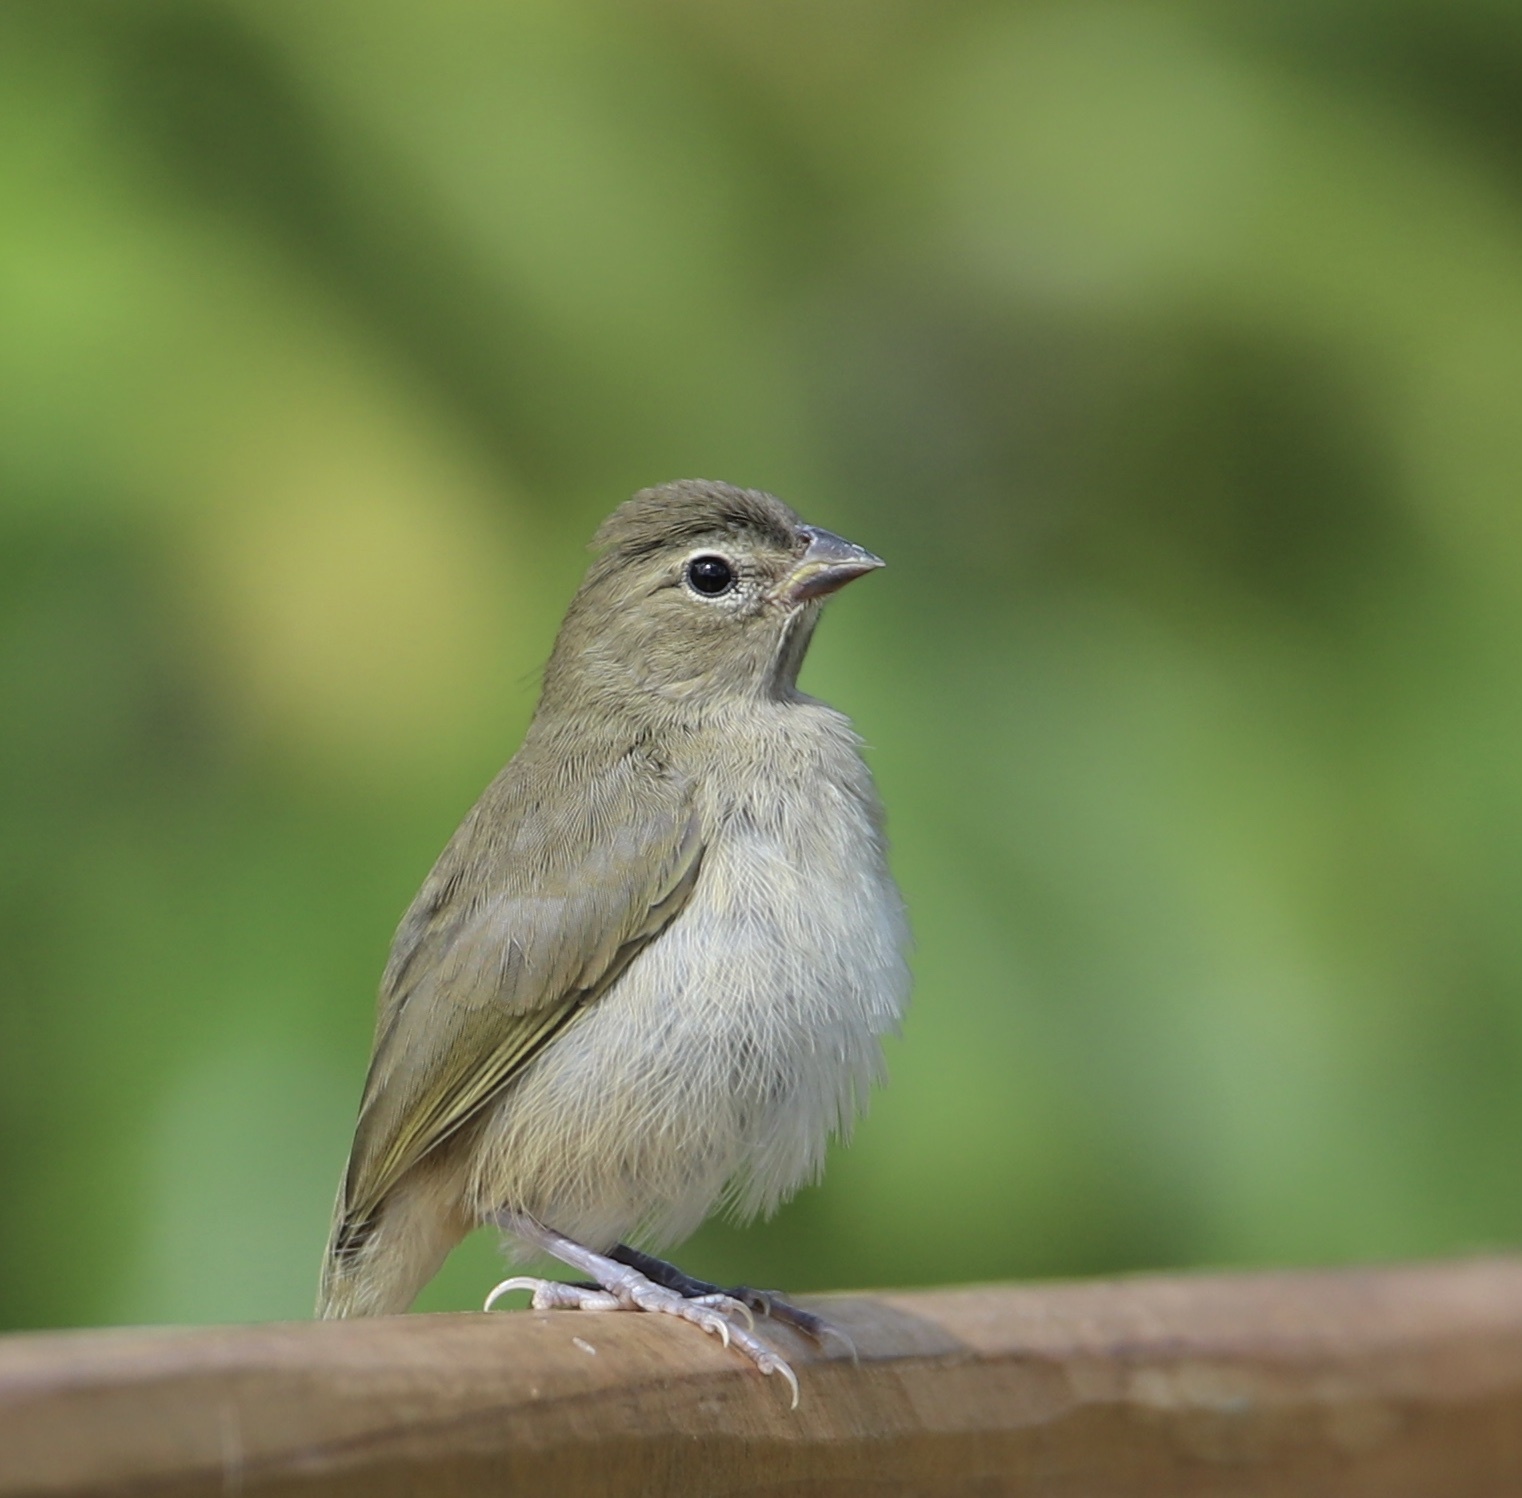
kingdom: Animalia
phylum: Chordata
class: Aves
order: Passeriformes
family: Thraupidae
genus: Tiaris
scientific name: Tiaris olivaceus
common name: Yellow-faced grassquit
